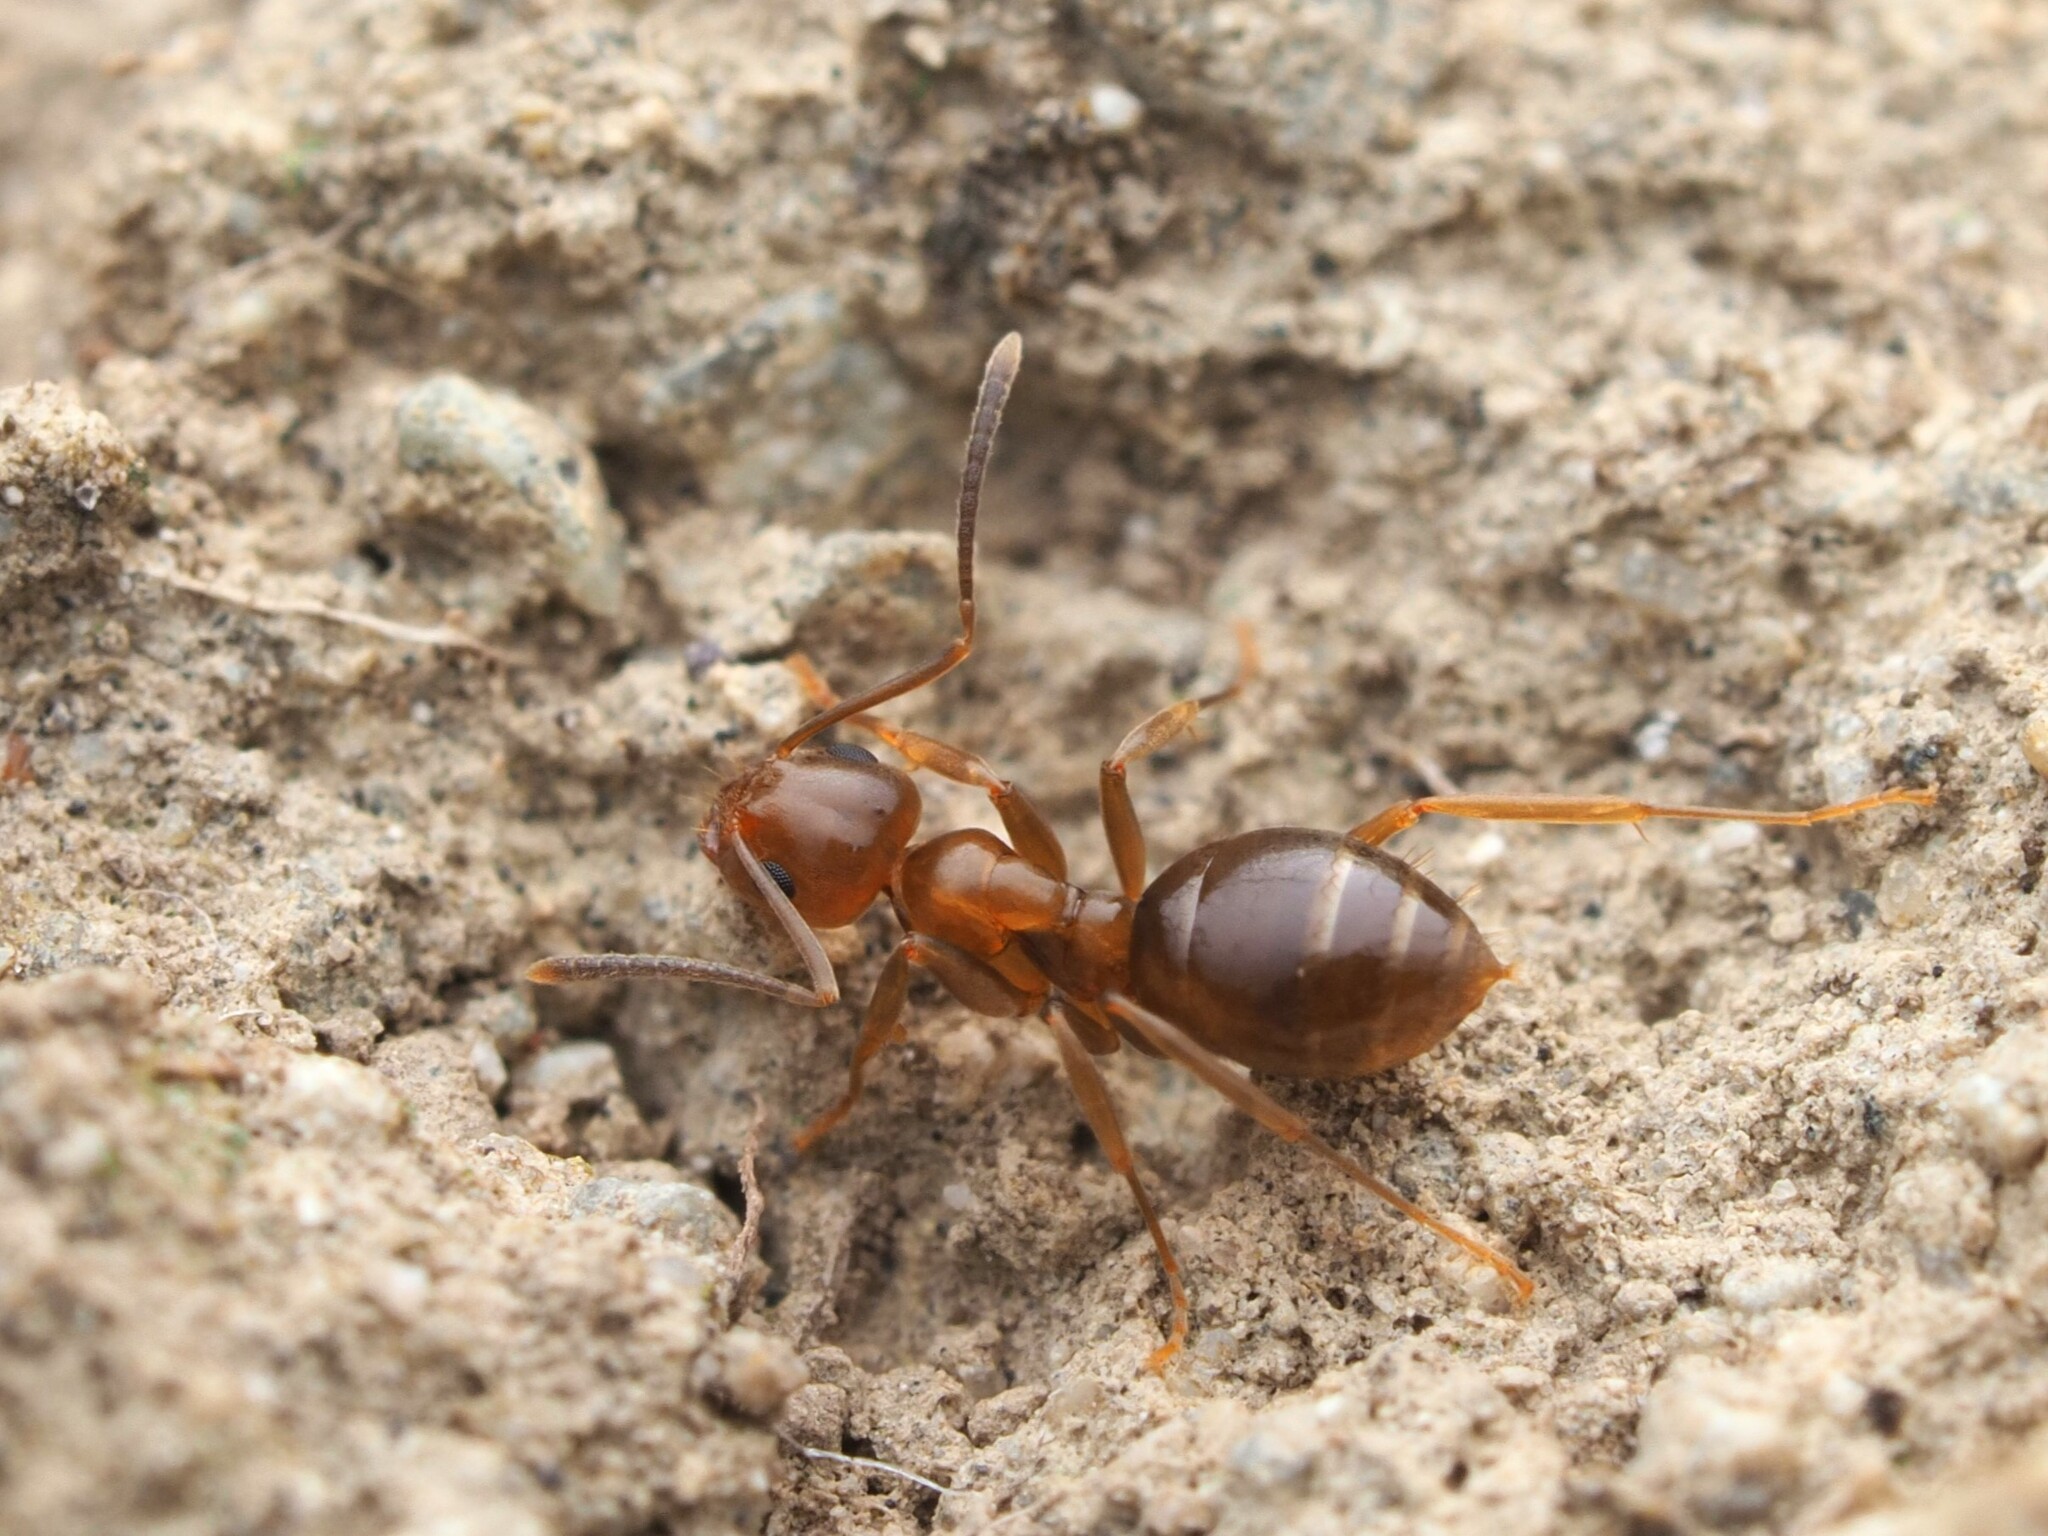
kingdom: Animalia
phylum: Arthropoda
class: Insecta
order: Hymenoptera
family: Formicidae
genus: Prolasius
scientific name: Prolasius advenus
